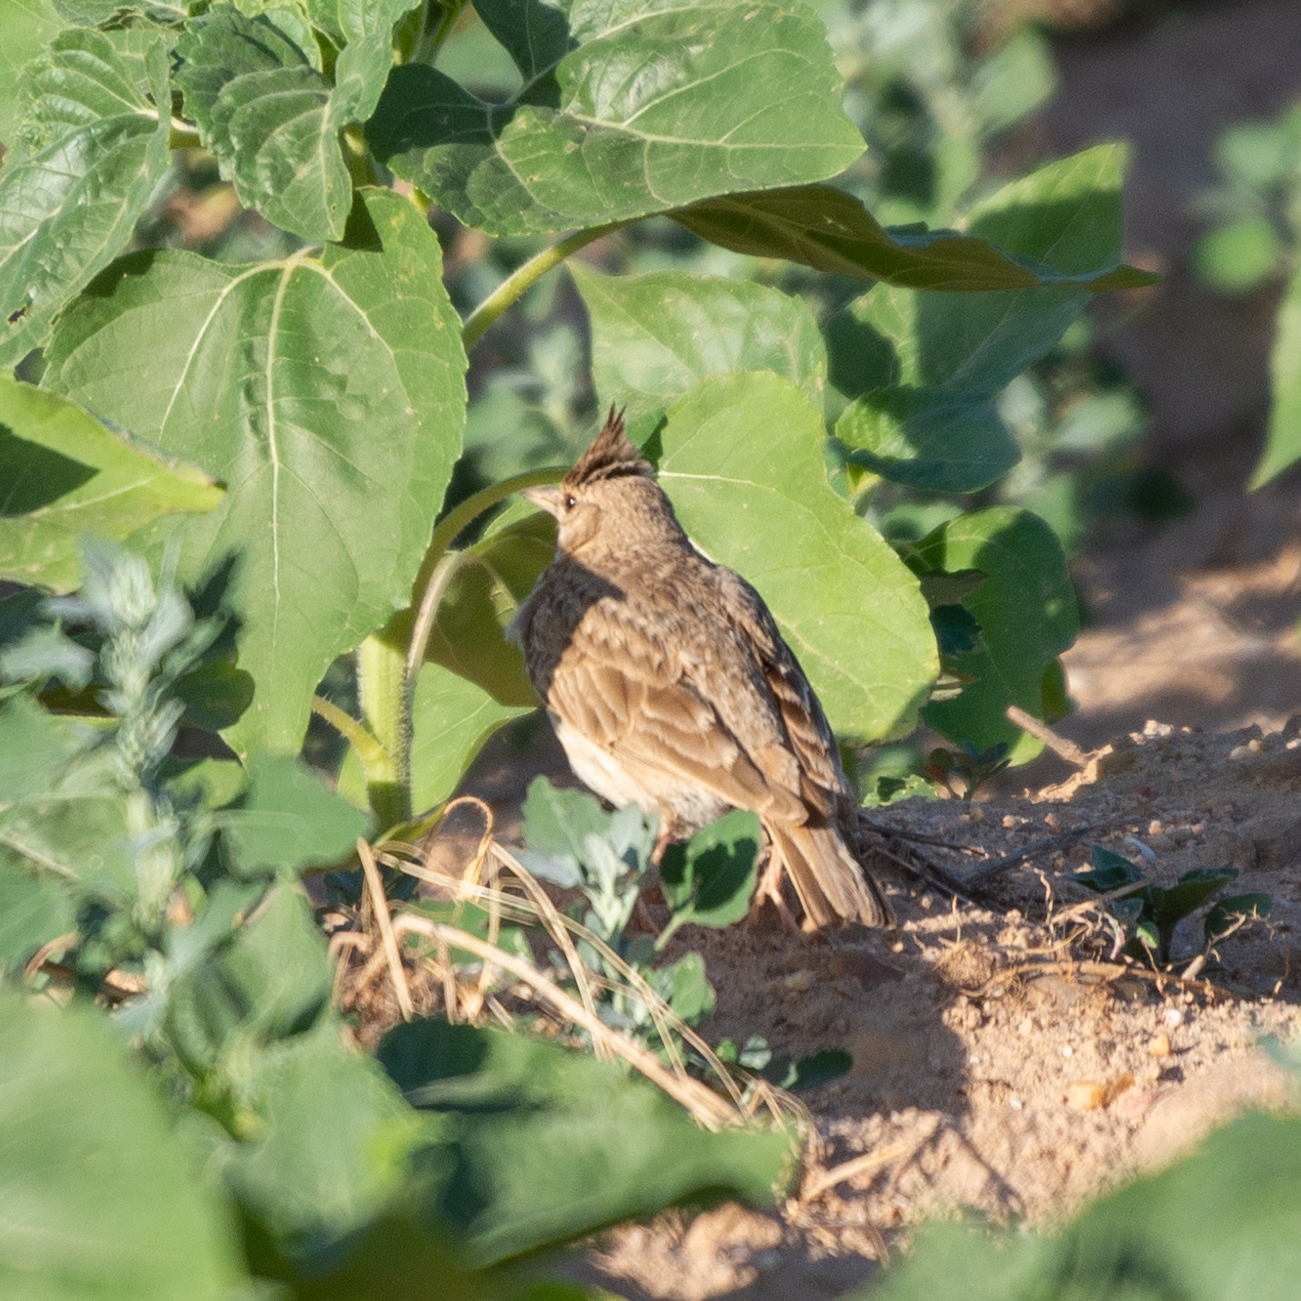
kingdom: Animalia
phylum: Chordata
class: Aves
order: Passeriformes
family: Alaudidae
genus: Galerida
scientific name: Galerida cristata
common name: Crested lark
